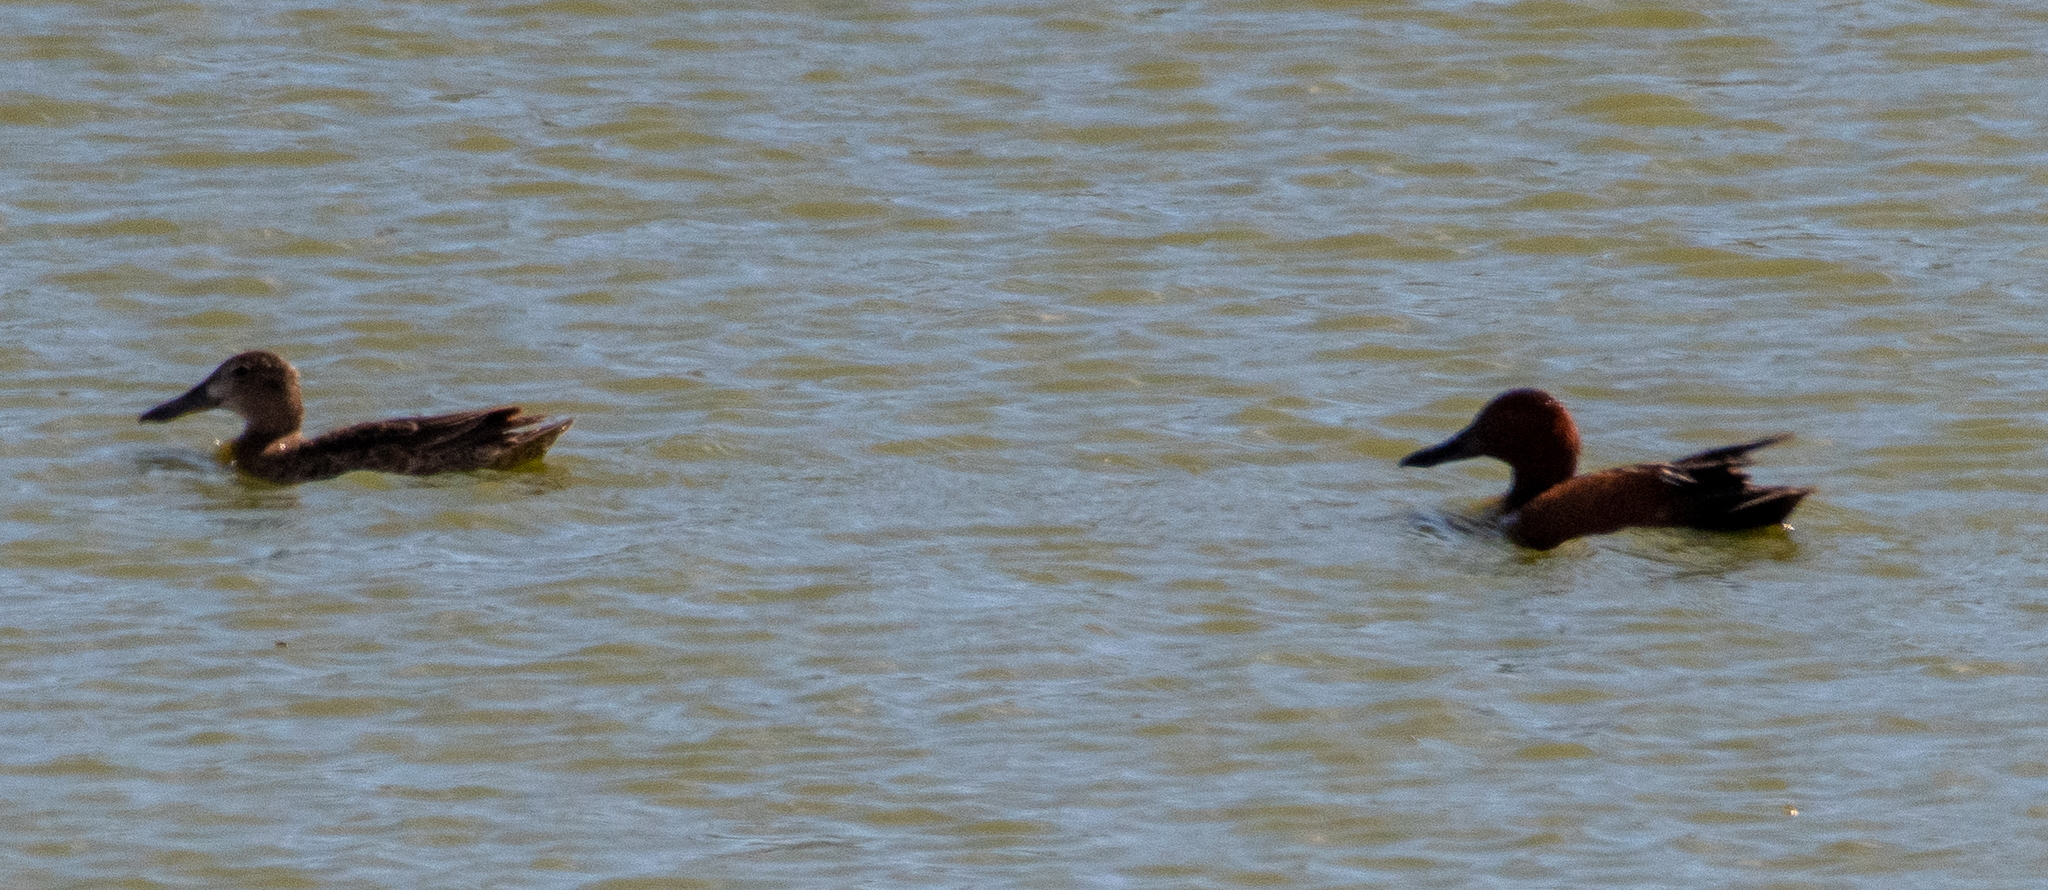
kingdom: Animalia
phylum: Chordata
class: Aves
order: Anseriformes
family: Anatidae
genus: Spatula
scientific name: Spatula cyanoptera
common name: Cinnamon teal
